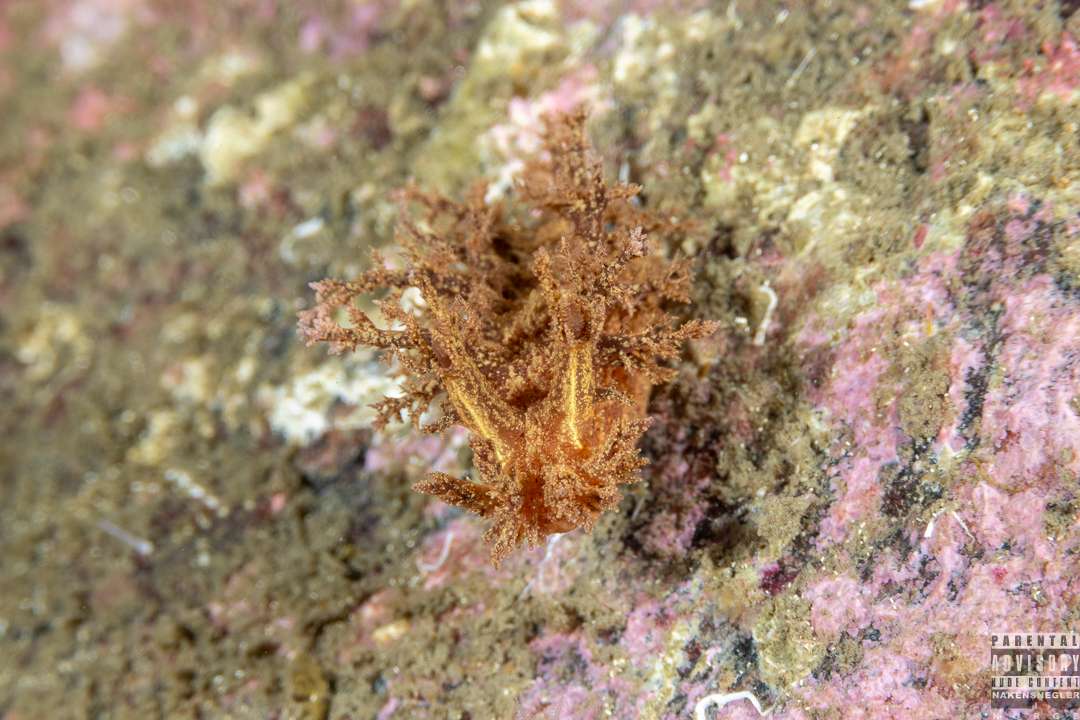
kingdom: Animalia
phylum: Mollusca
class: Gastropoda
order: Nudibranchia
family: Dendronotidae
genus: Dendronotus
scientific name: Dendronotus europaeus
